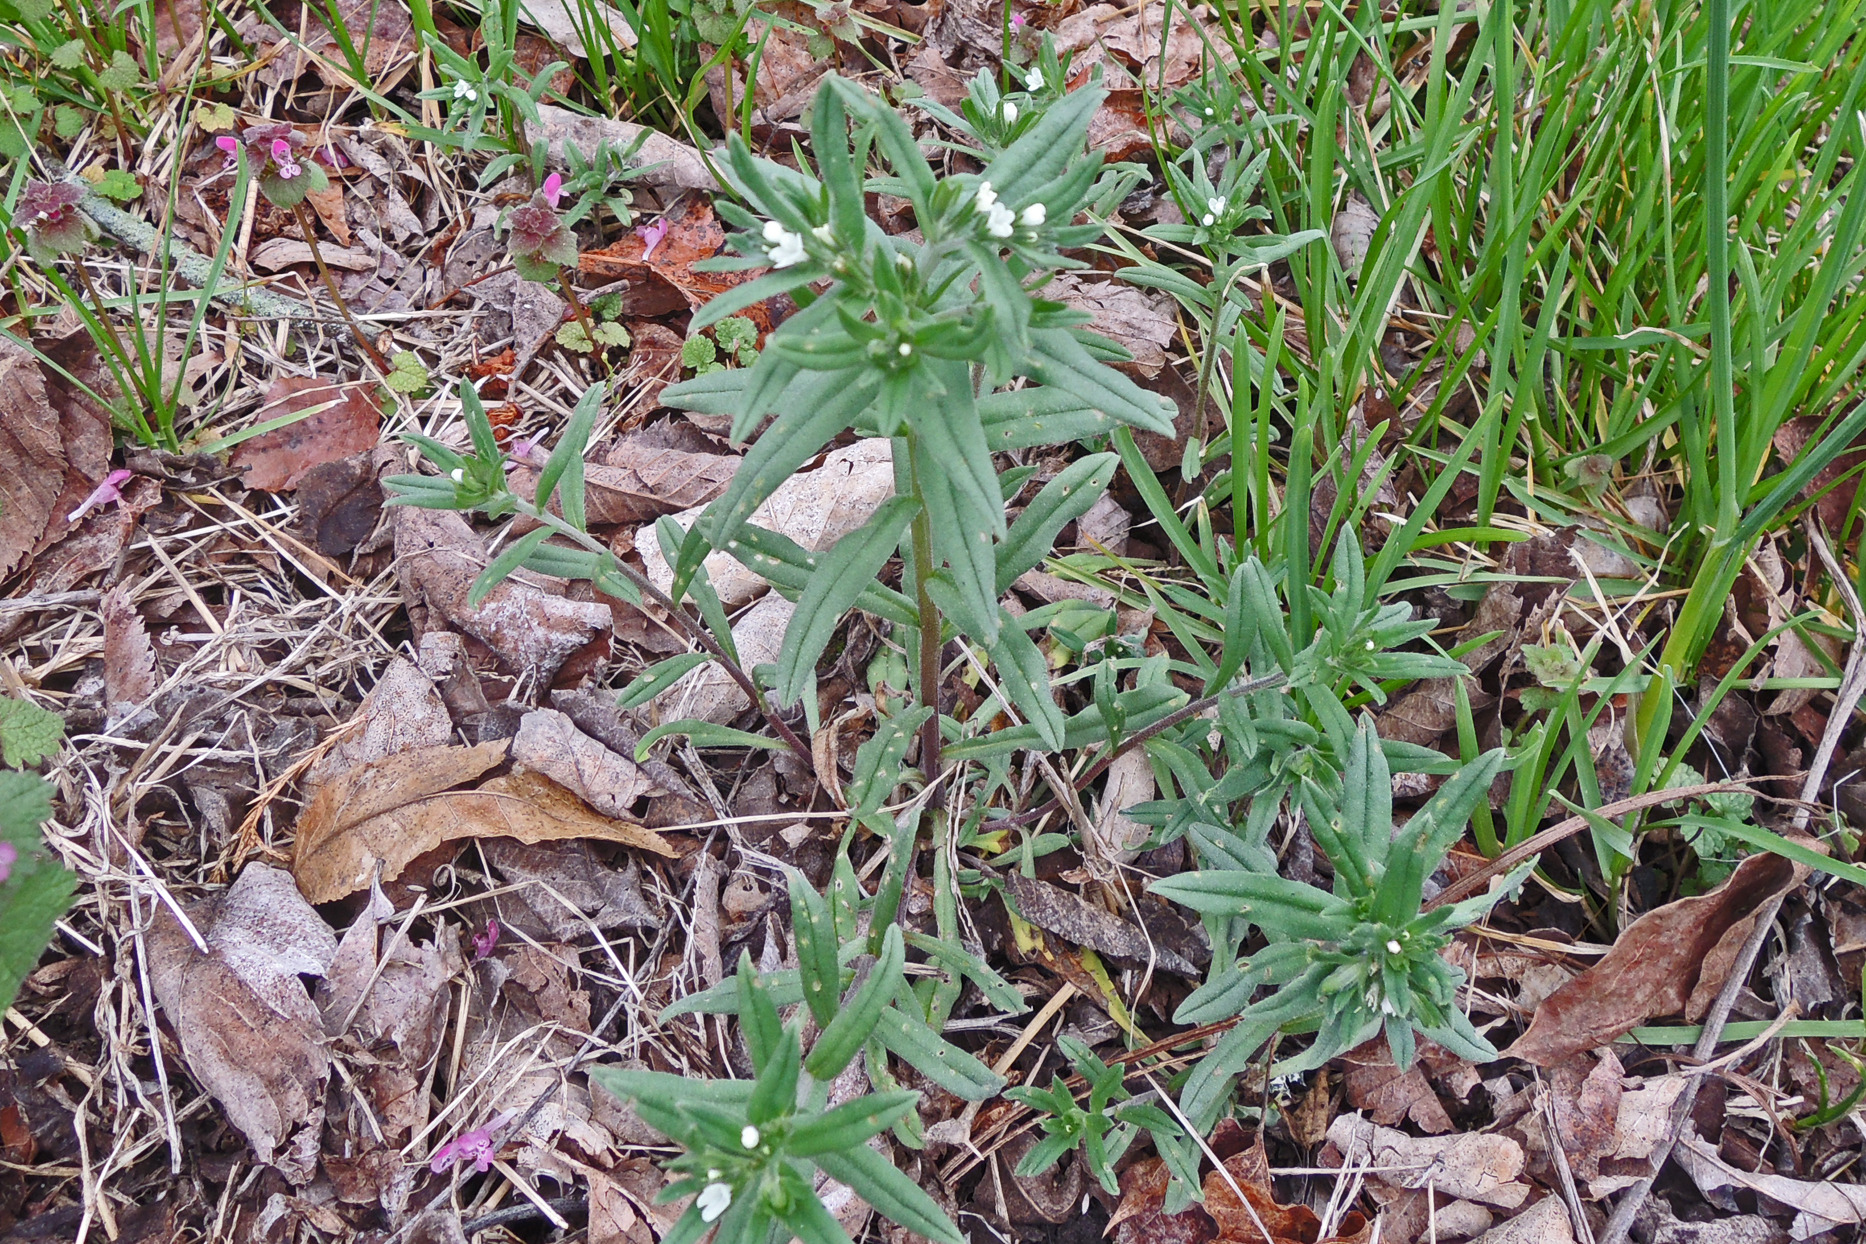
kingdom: Plantae
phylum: Tracheophyta
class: Magnoliopsida
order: Boraginales
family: Boraginaceae
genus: Buglossoides
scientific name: Buglossoides arvensis
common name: Corn gromwell
